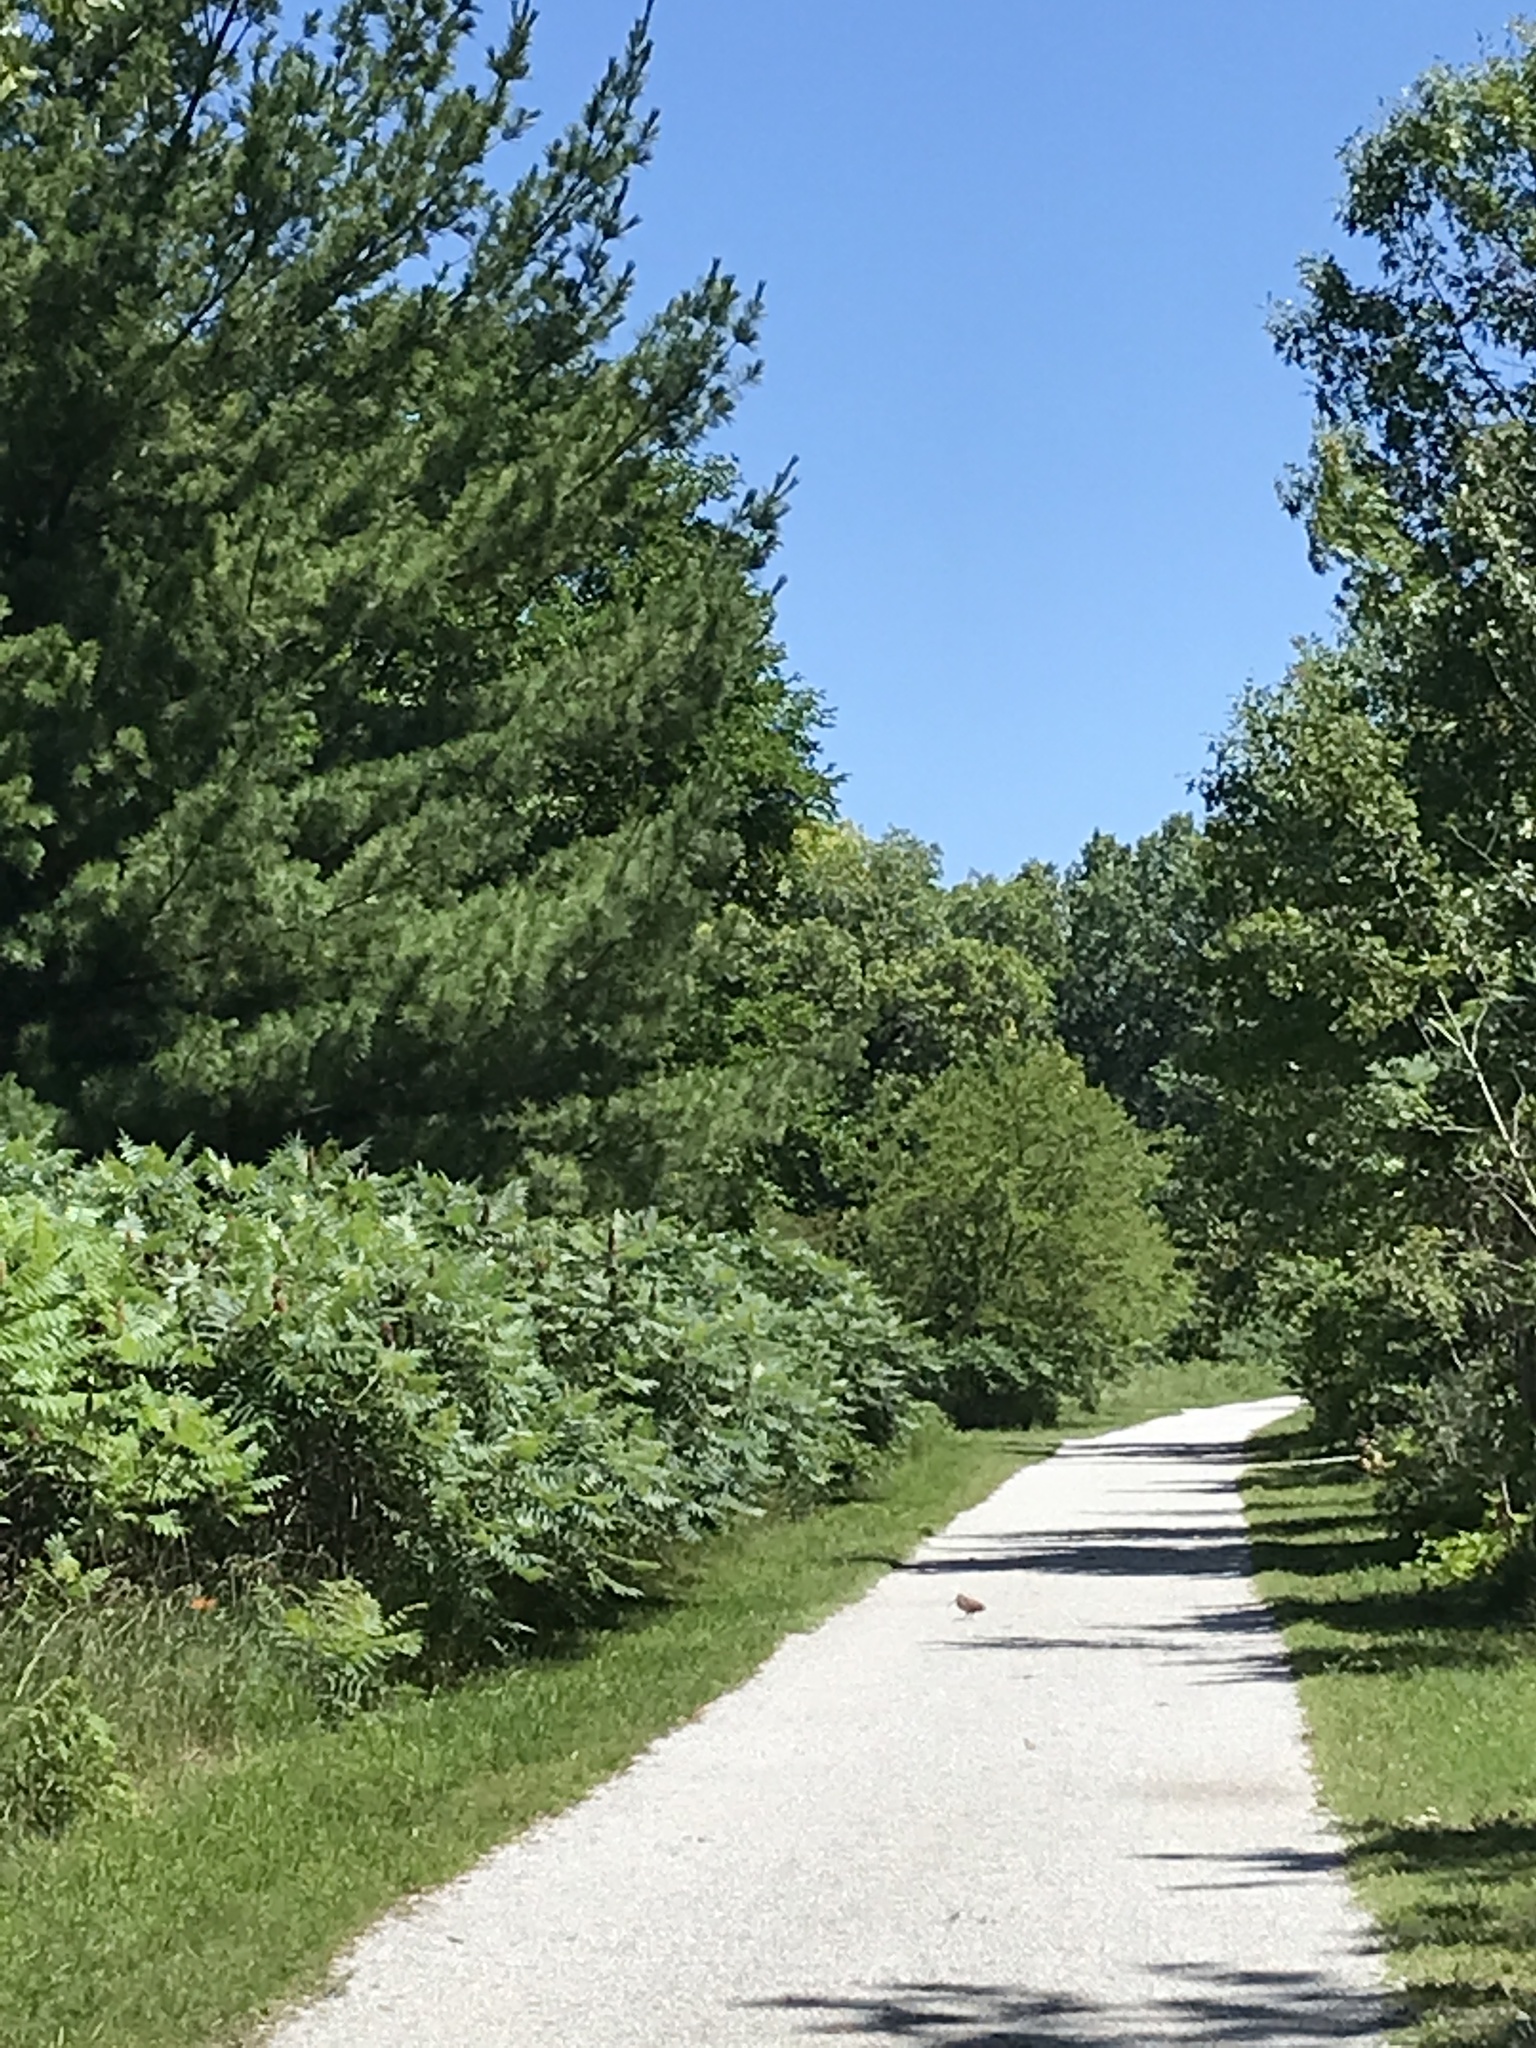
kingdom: Animalia
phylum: Chordata
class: Aves
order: Charadriiformes
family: Scolopacidae
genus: Scolopax
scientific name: Scolopax minor
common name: American woodcock
